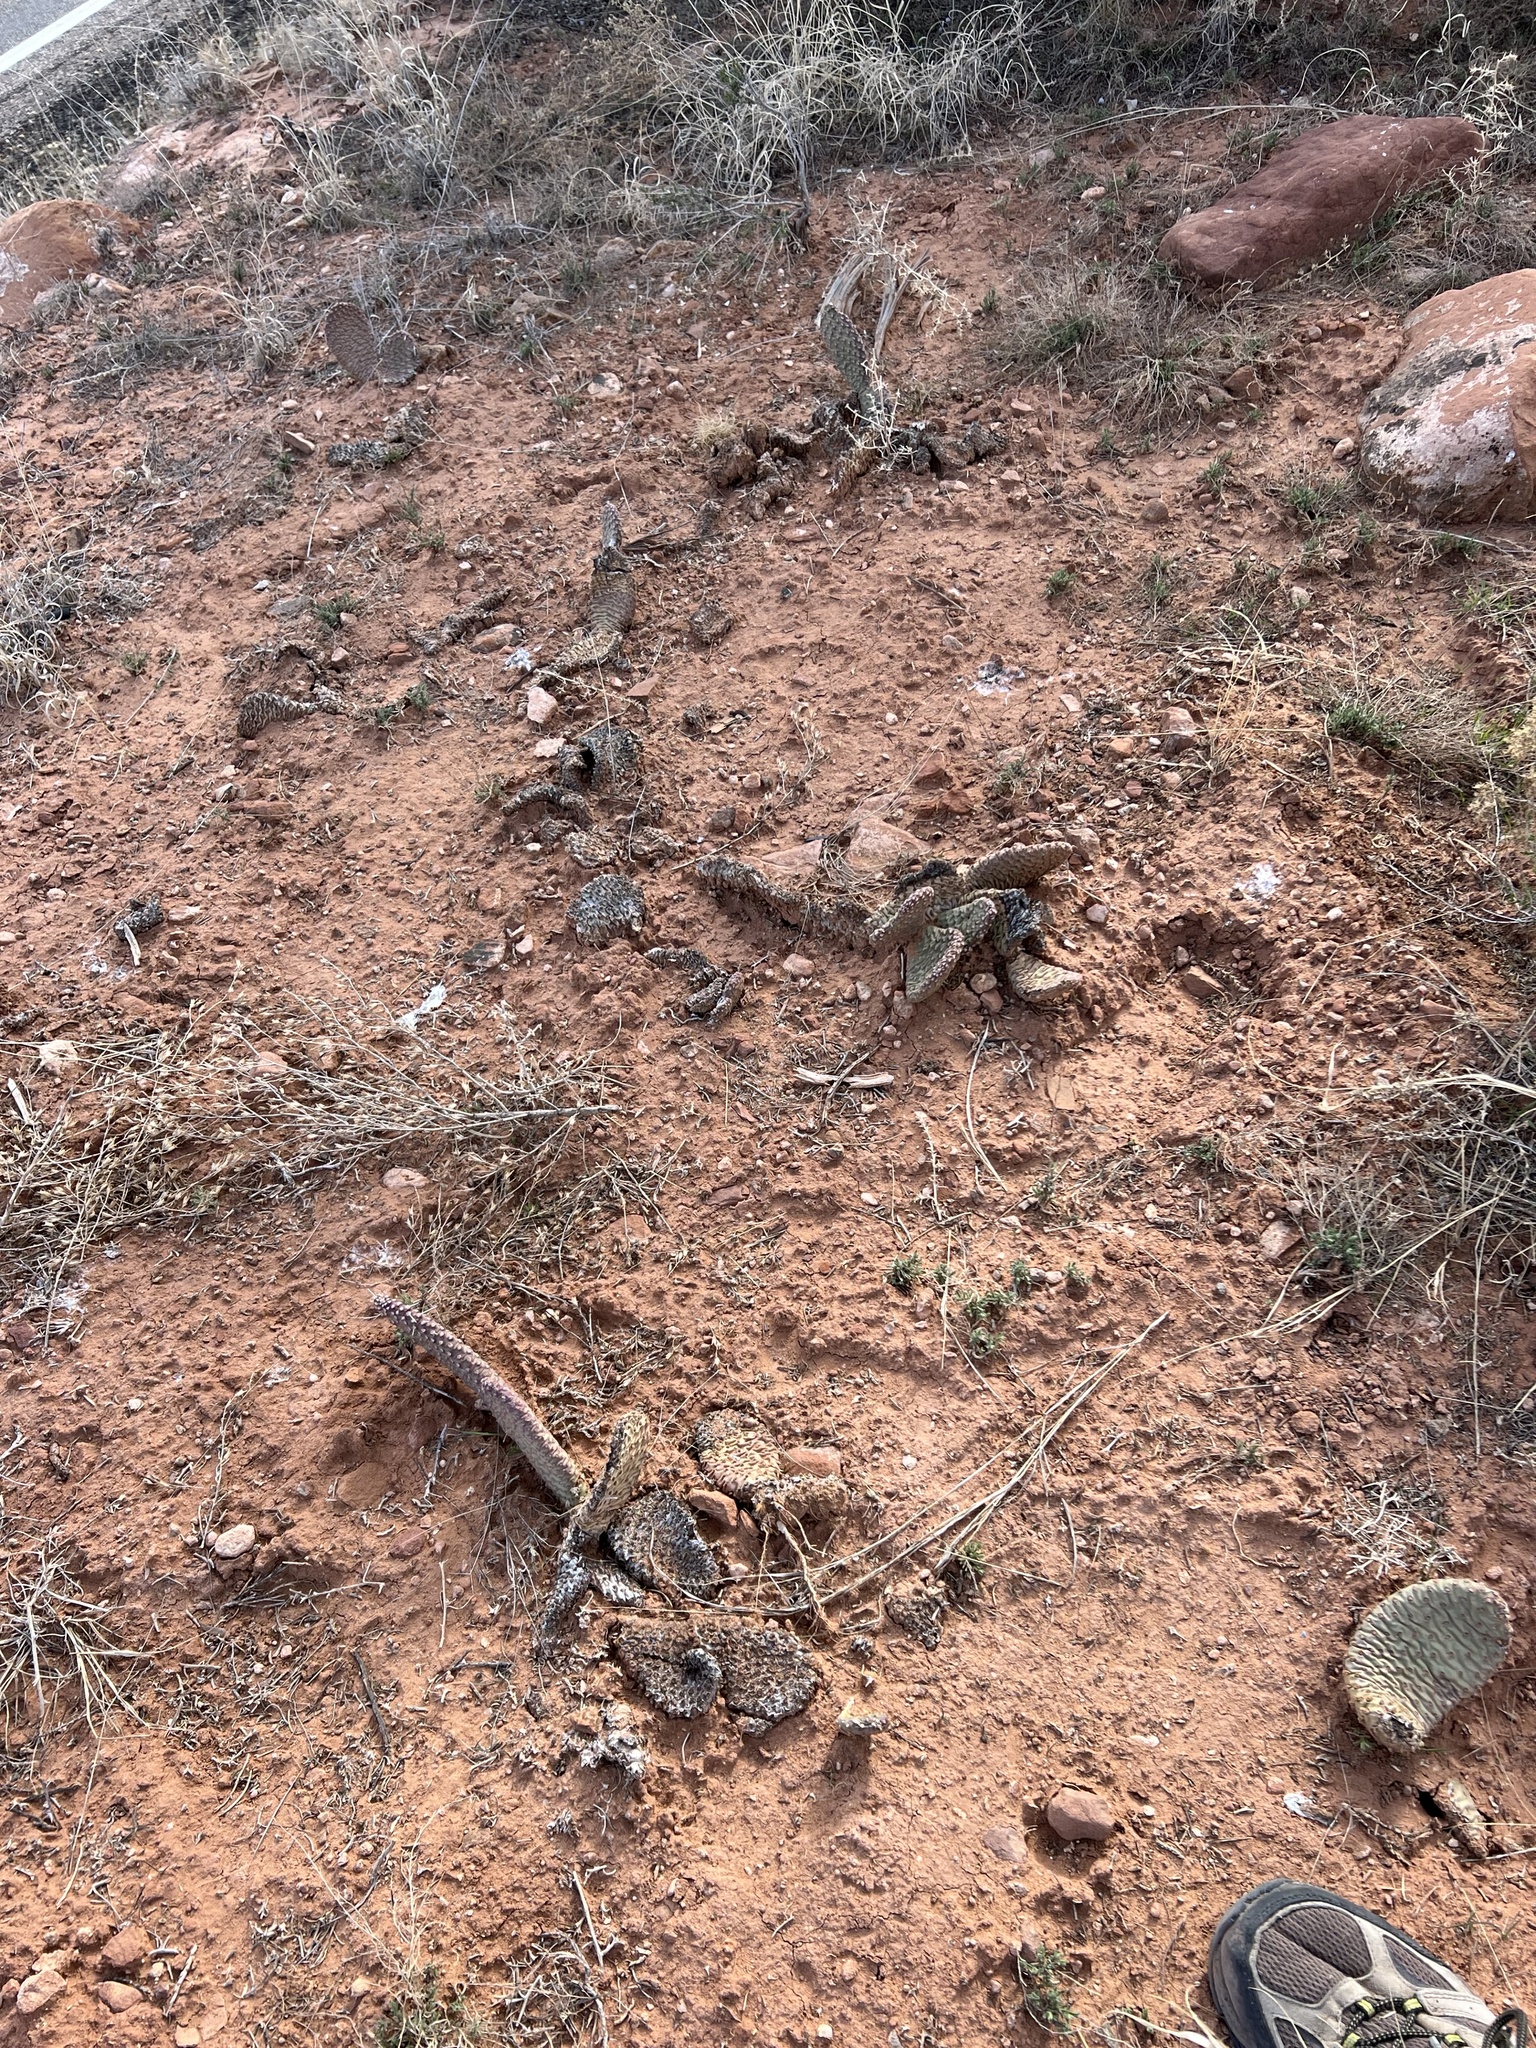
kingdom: Plantae
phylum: Tracheophyta
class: Magnoliopsida
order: Caryophyllales
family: Cactaceae
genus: Opuntia
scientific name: Opuntia aurea
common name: Golden prickly-pear
